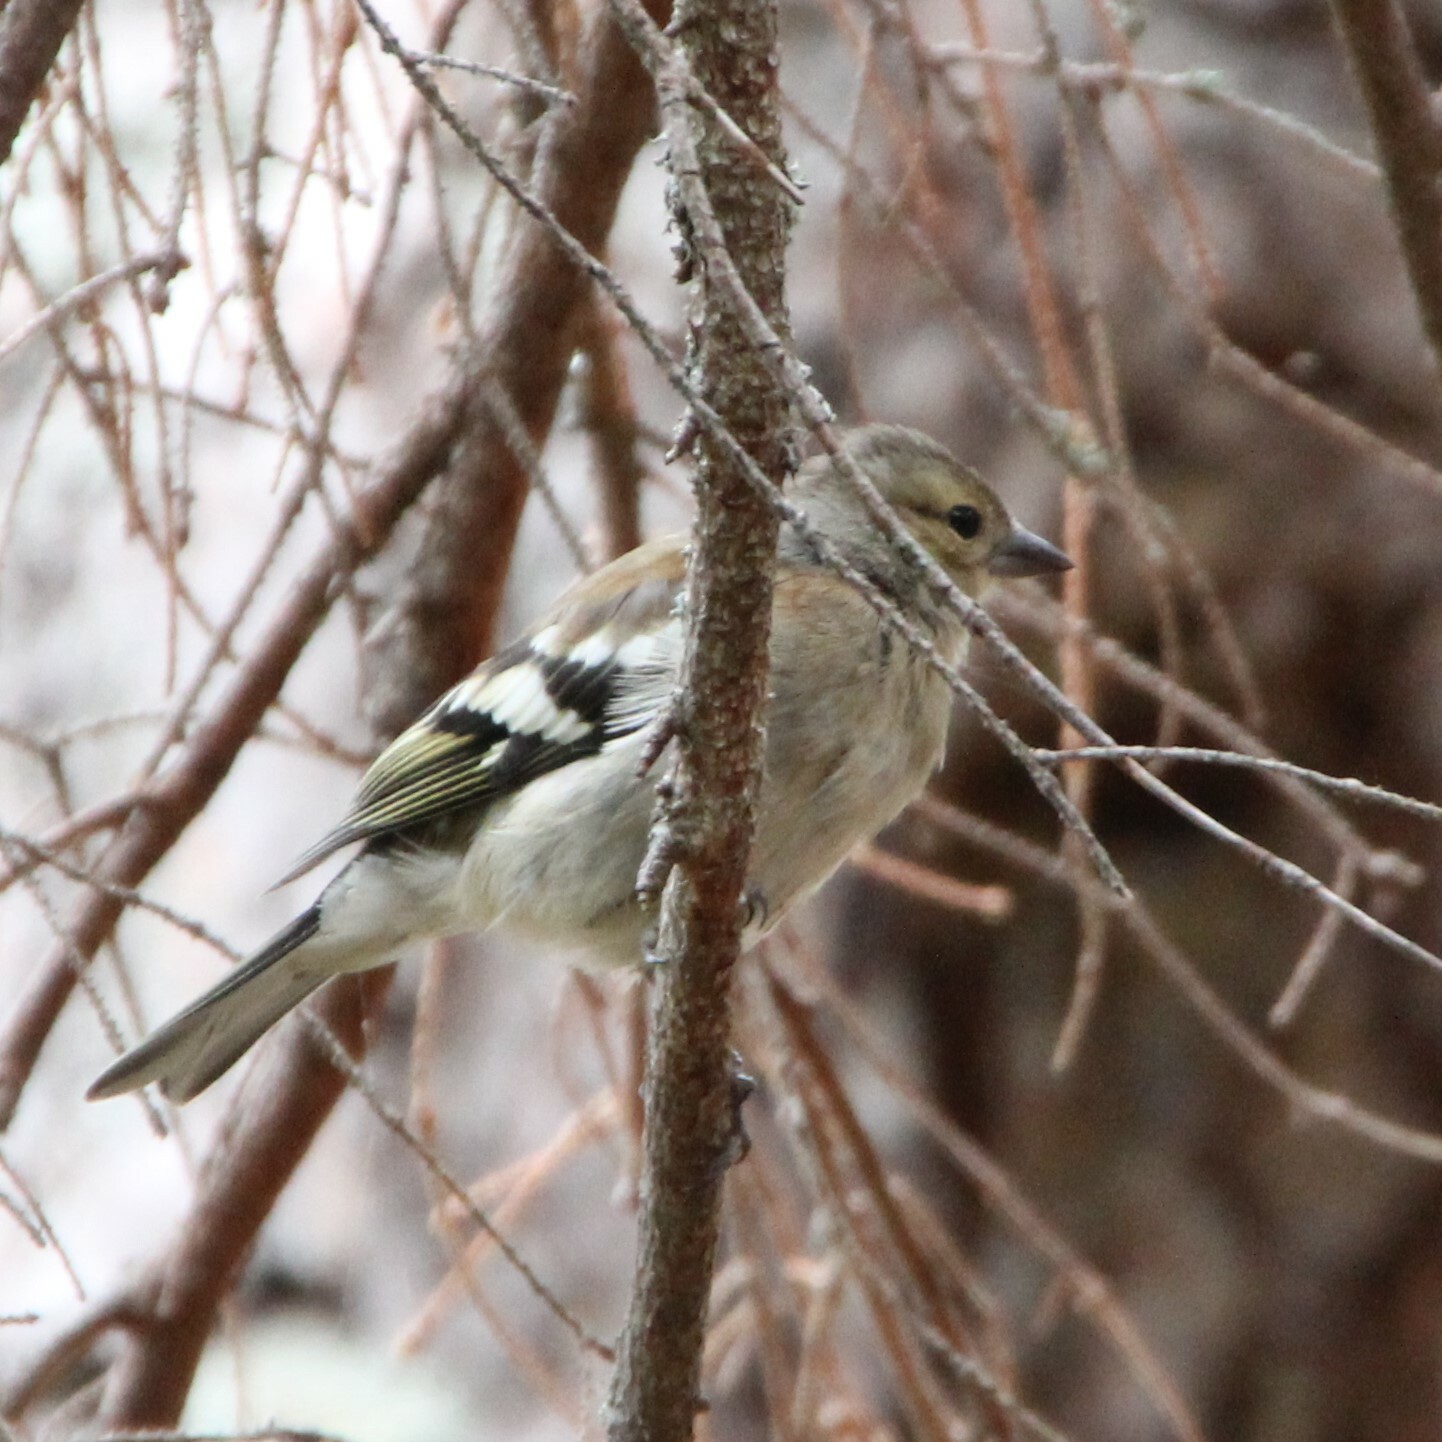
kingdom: Animalia
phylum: Chordata
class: Aves
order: Passeriformes
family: Fringillidae
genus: Fringilla
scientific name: Fringilla coelebs
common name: Common chaffinch
